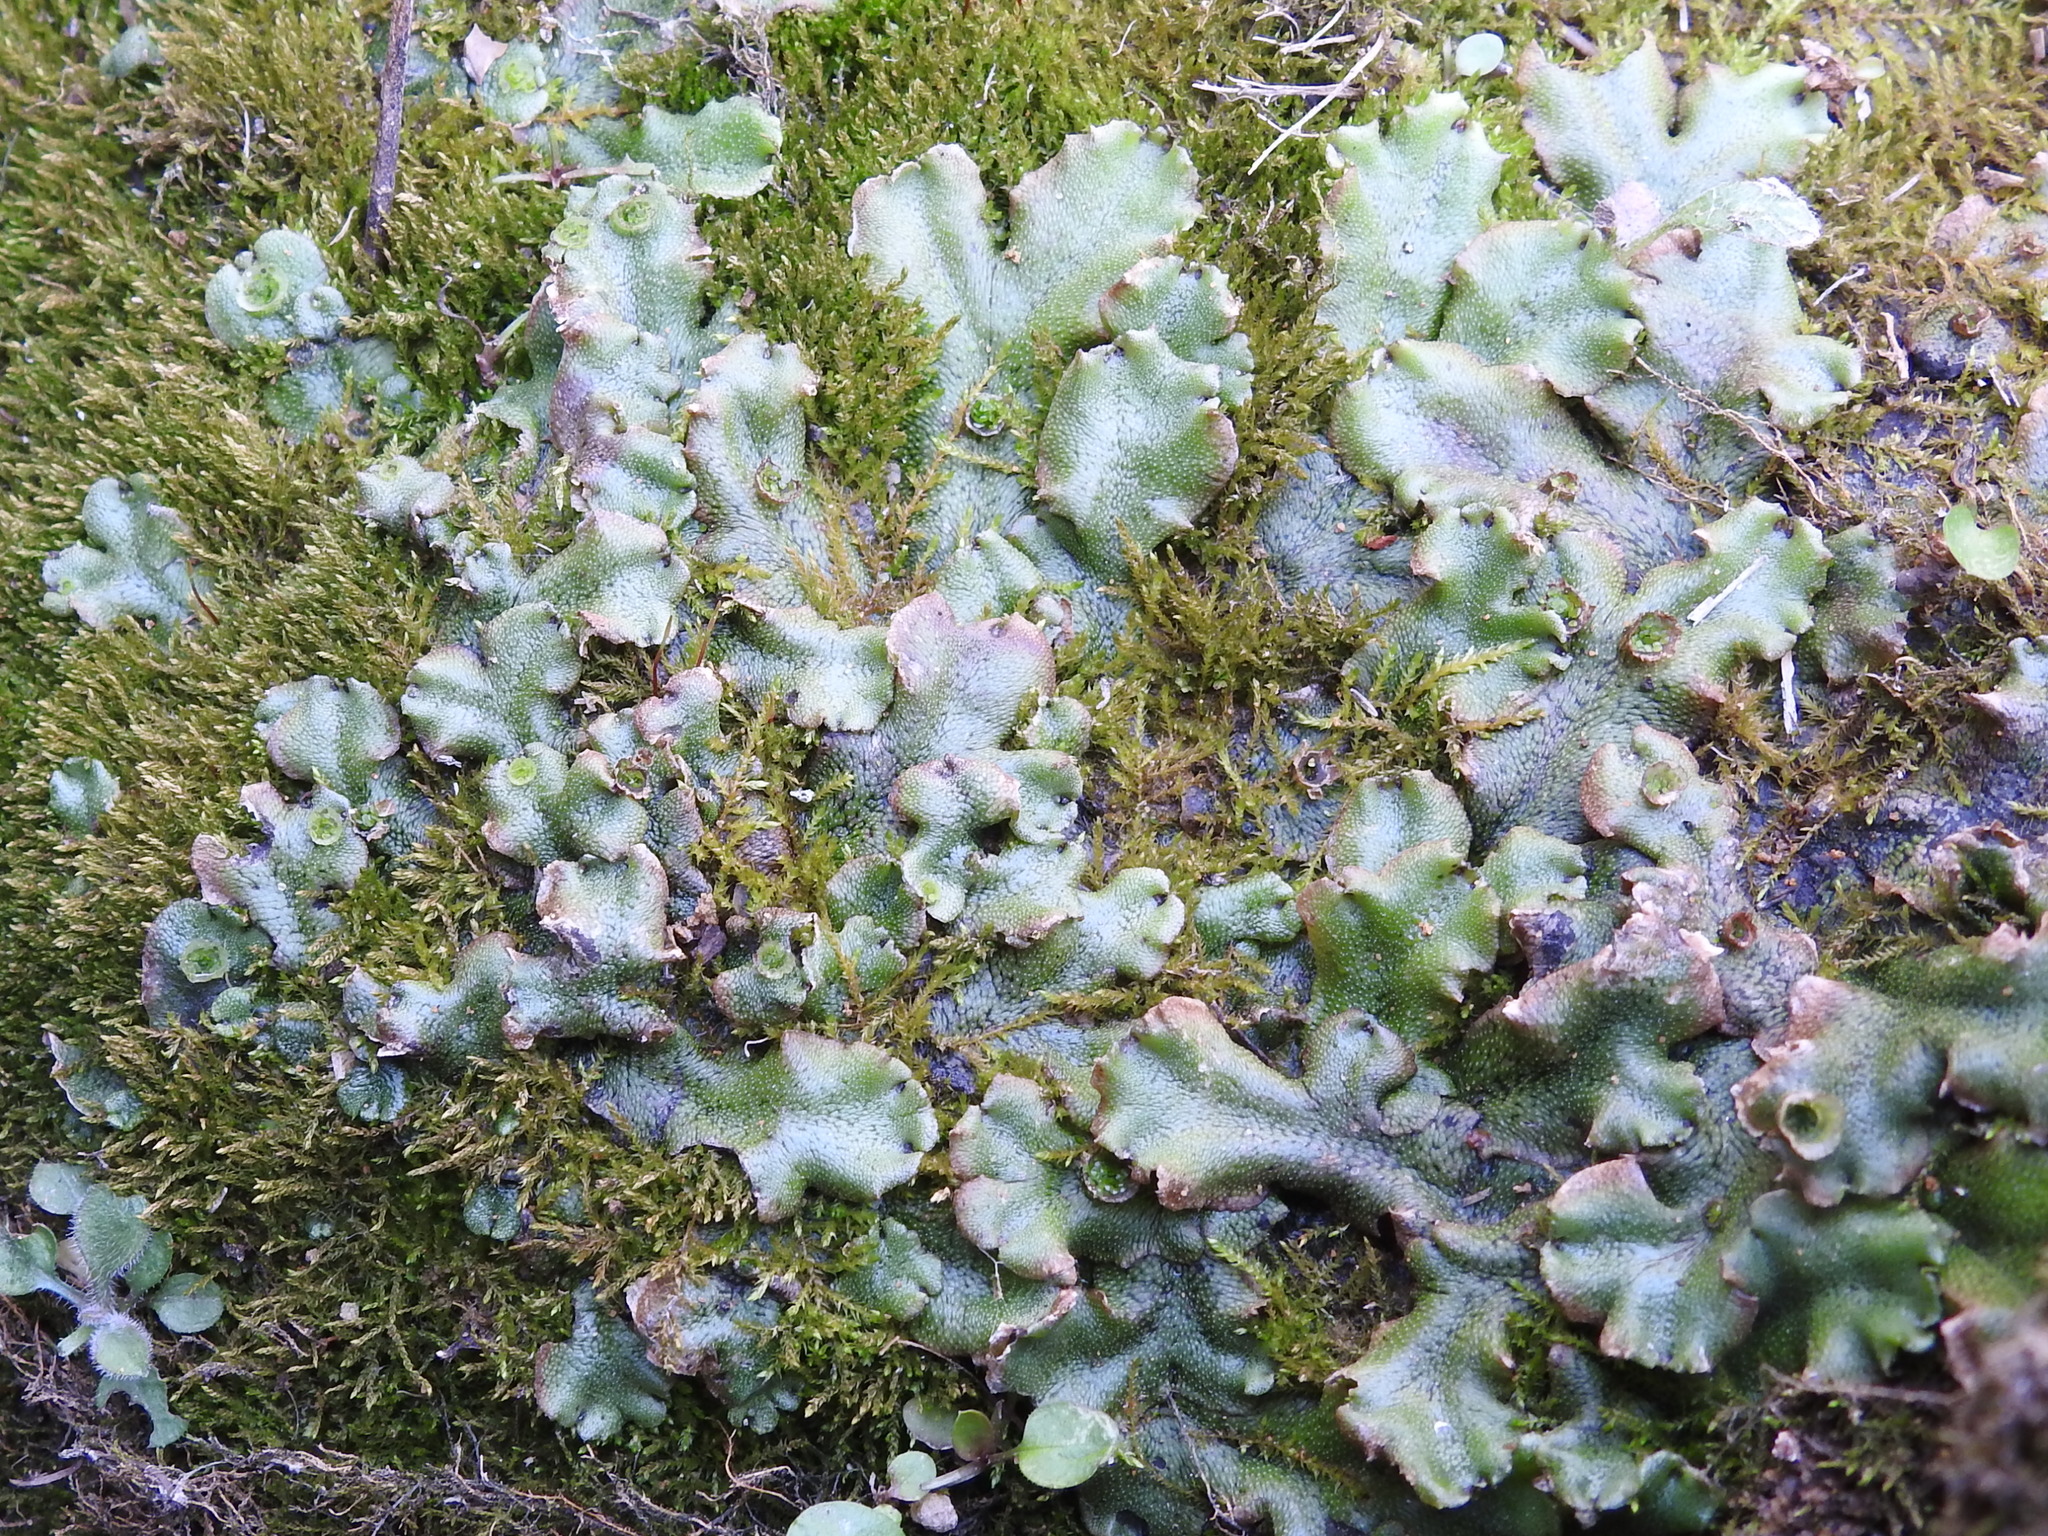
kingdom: Plantae
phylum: Marchantiophyta
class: Marchantiopsida
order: Marchantiales
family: Marchantiaceae
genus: Marchantia
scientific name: Marchantia polymorpha
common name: Common liverwort
